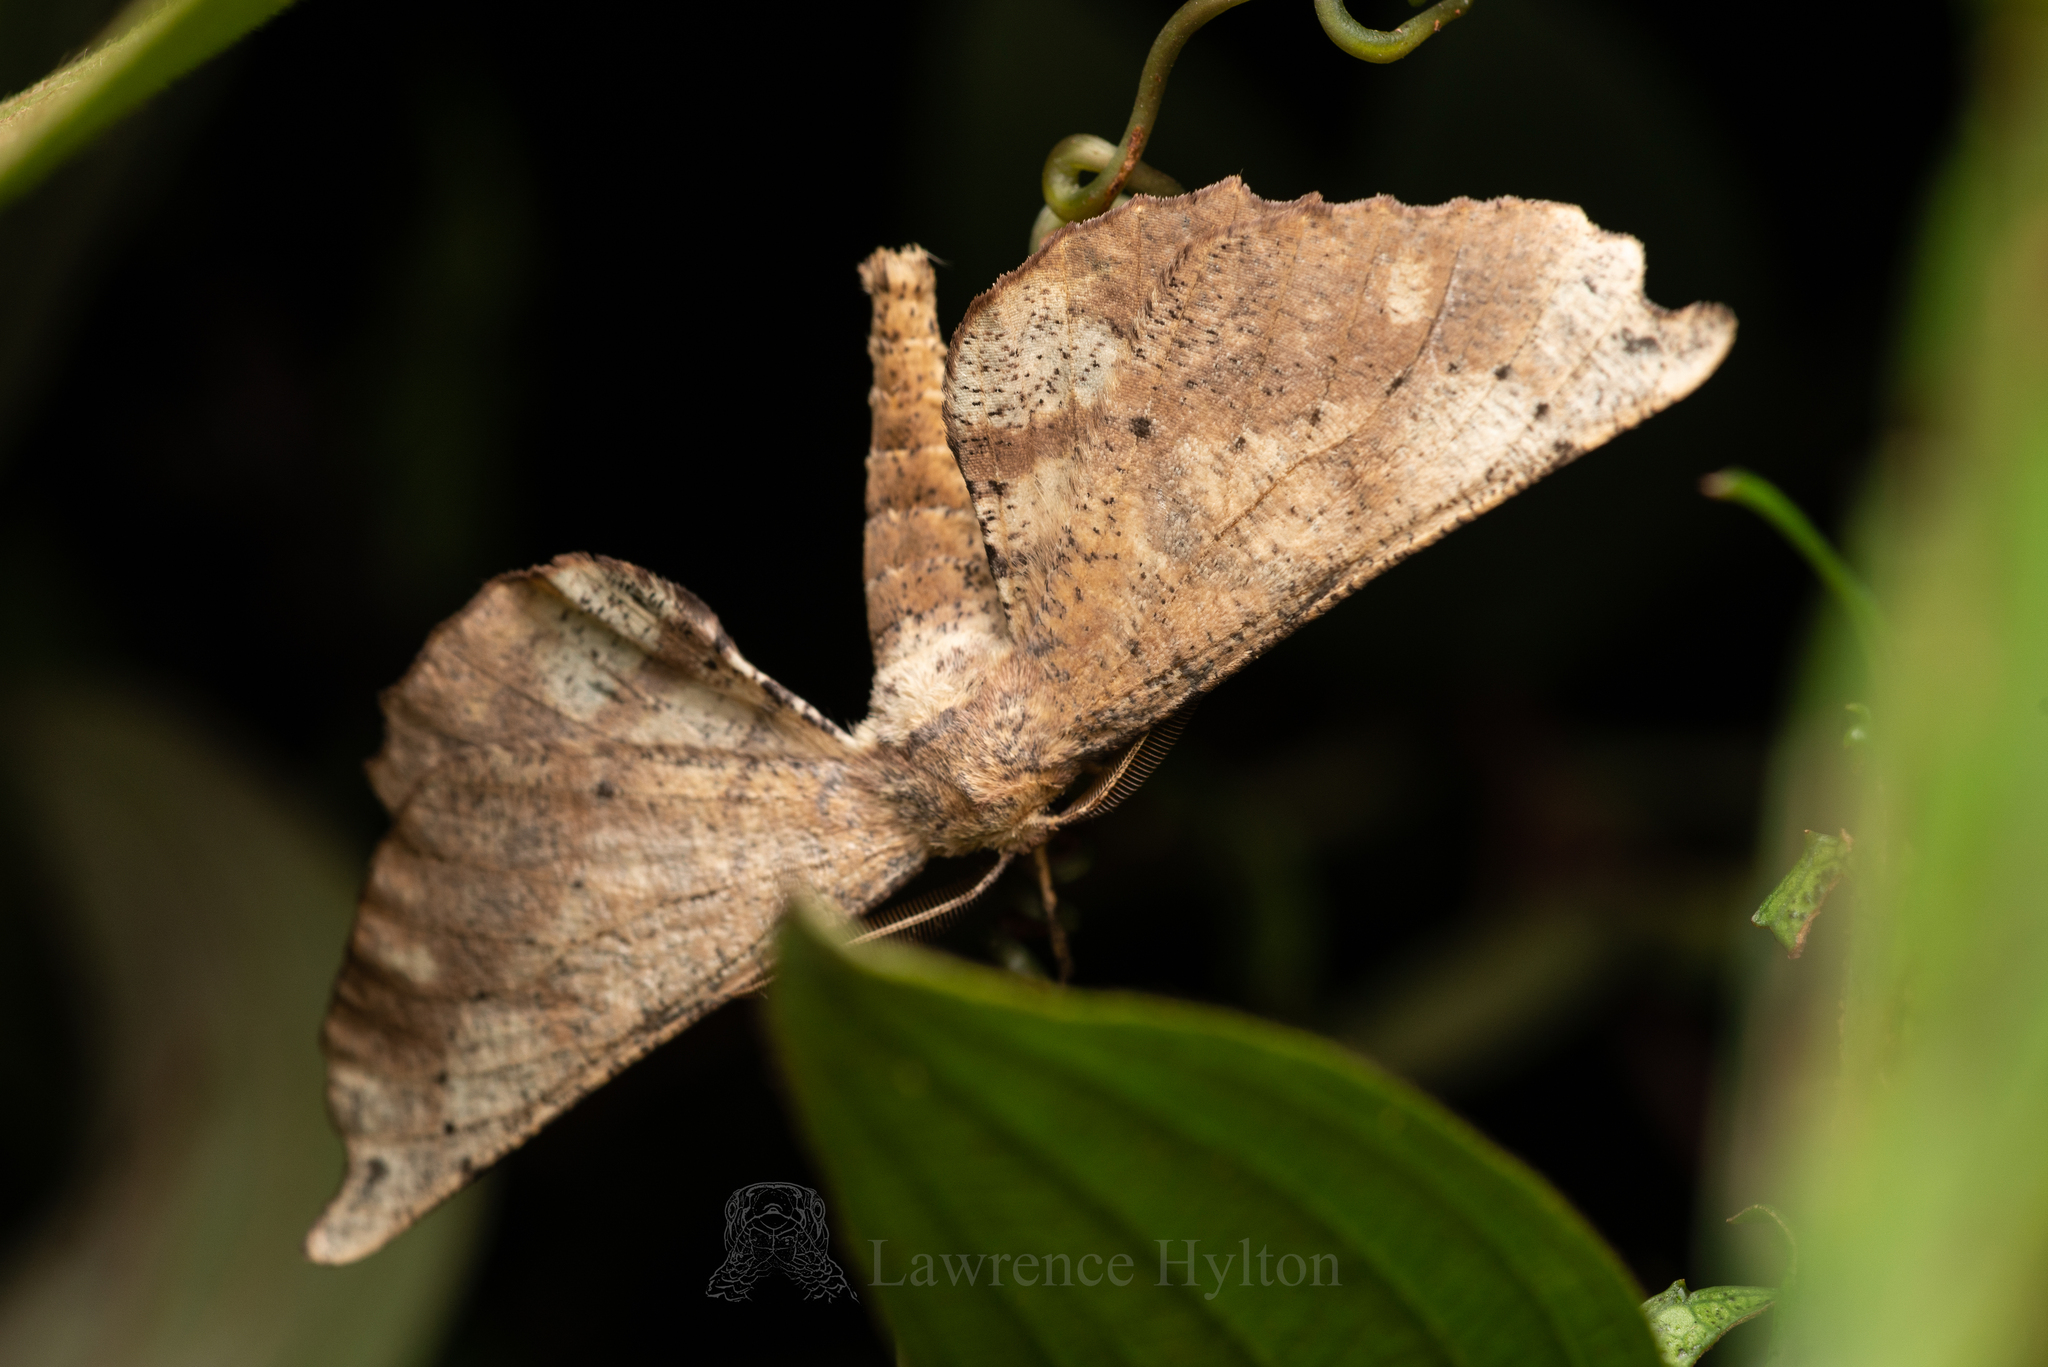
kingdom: Animalia
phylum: Arthropoda
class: Insecta
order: Lepidoptera
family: Geometridae
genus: Acrodontis
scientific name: Acrodontis aenigma
